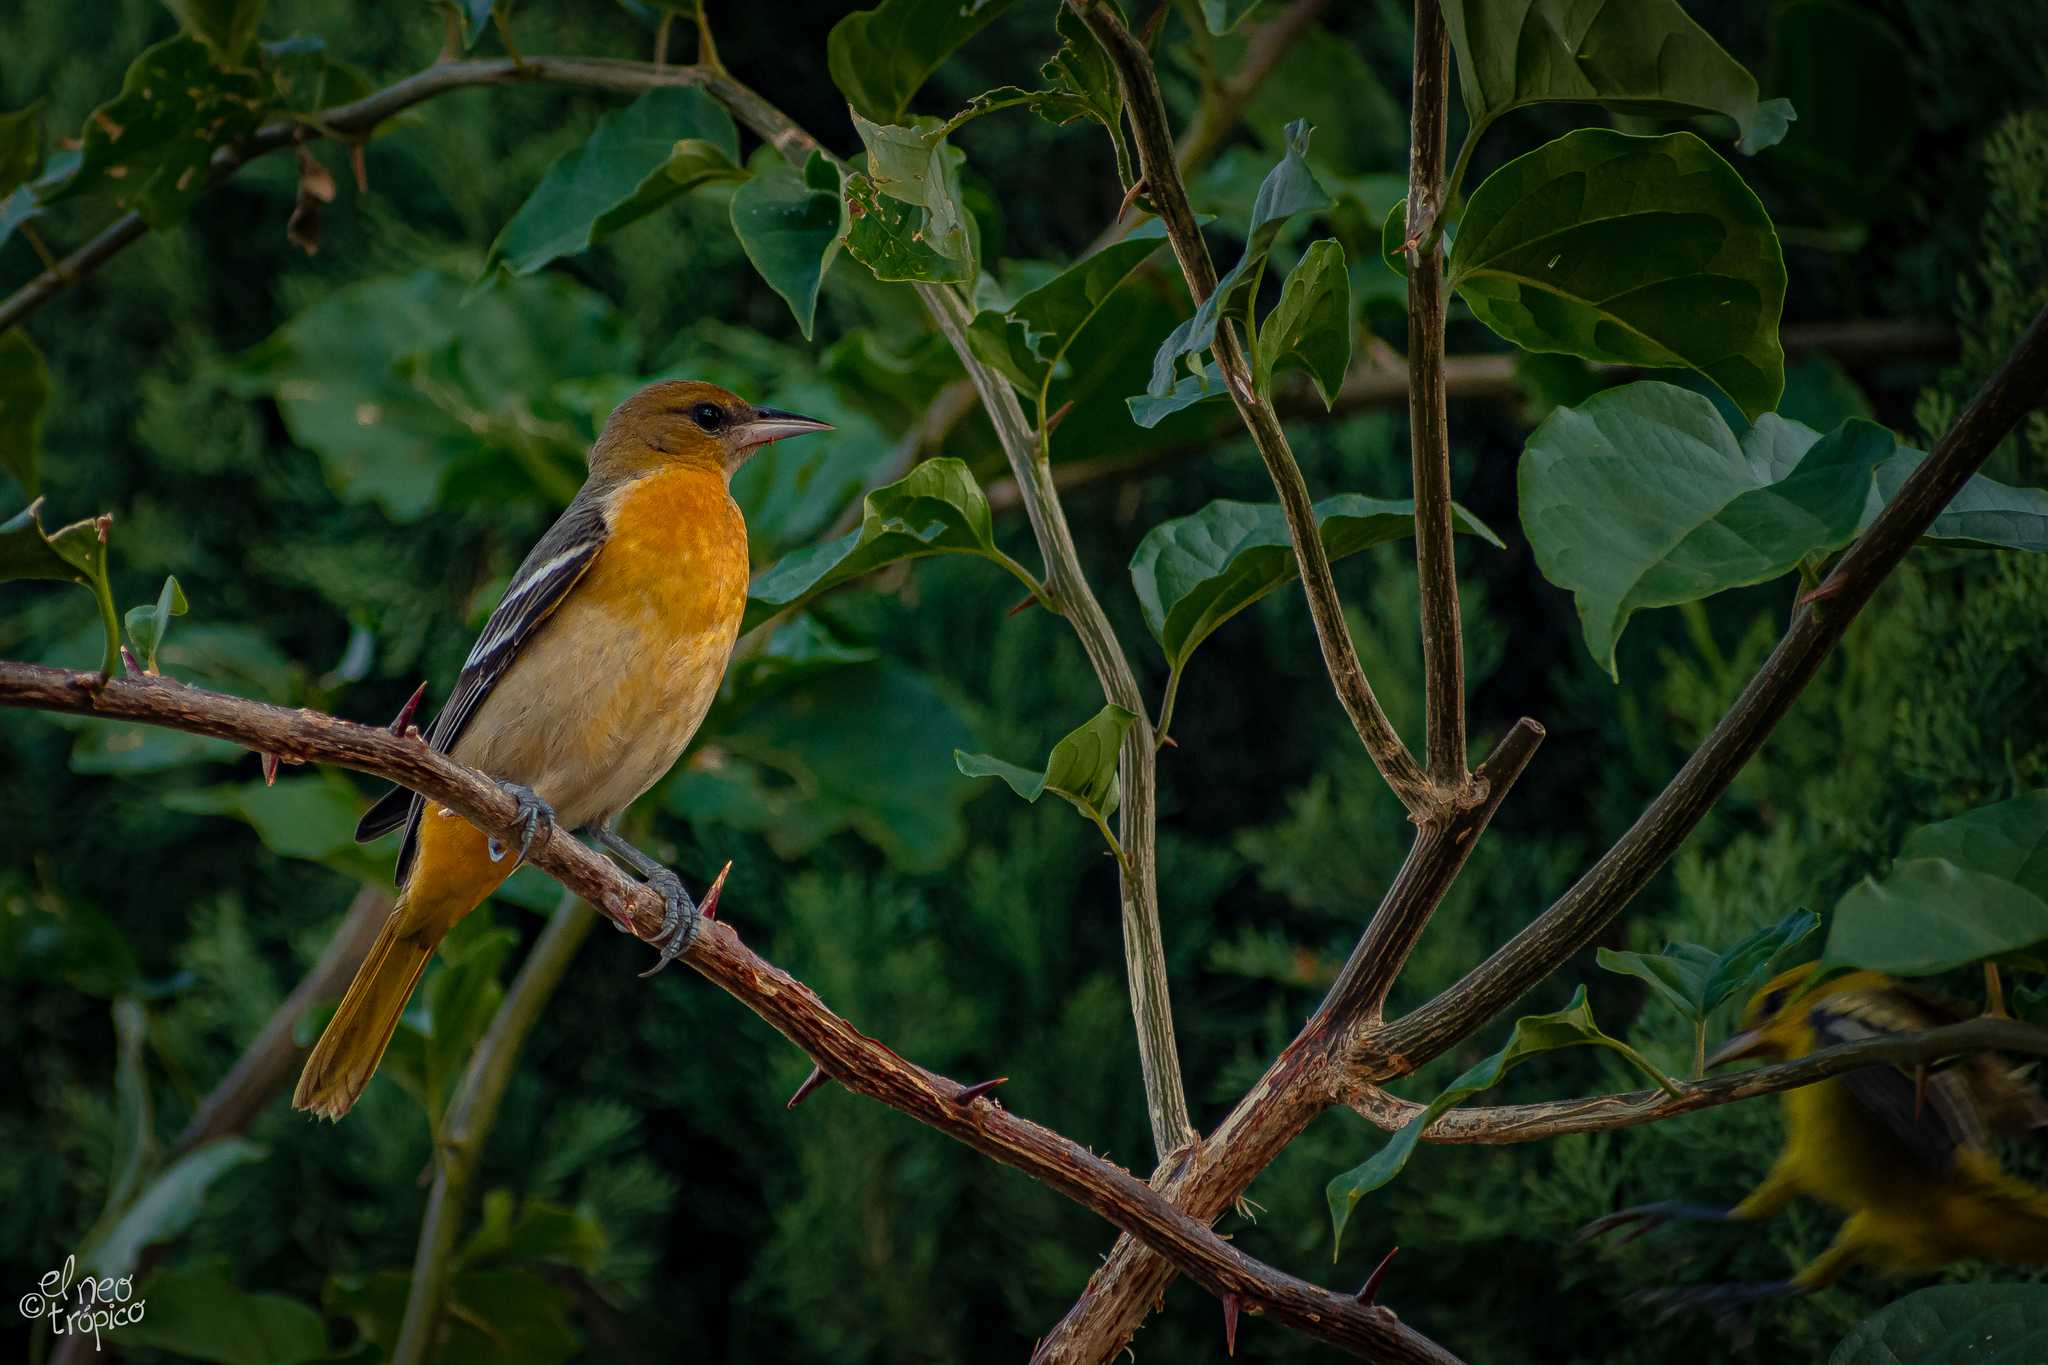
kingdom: Animalia
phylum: Chordata
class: Aves
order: Passeriformes
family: Icteridae
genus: Icterus
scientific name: Icterus galbula
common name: Baltimore oriole
